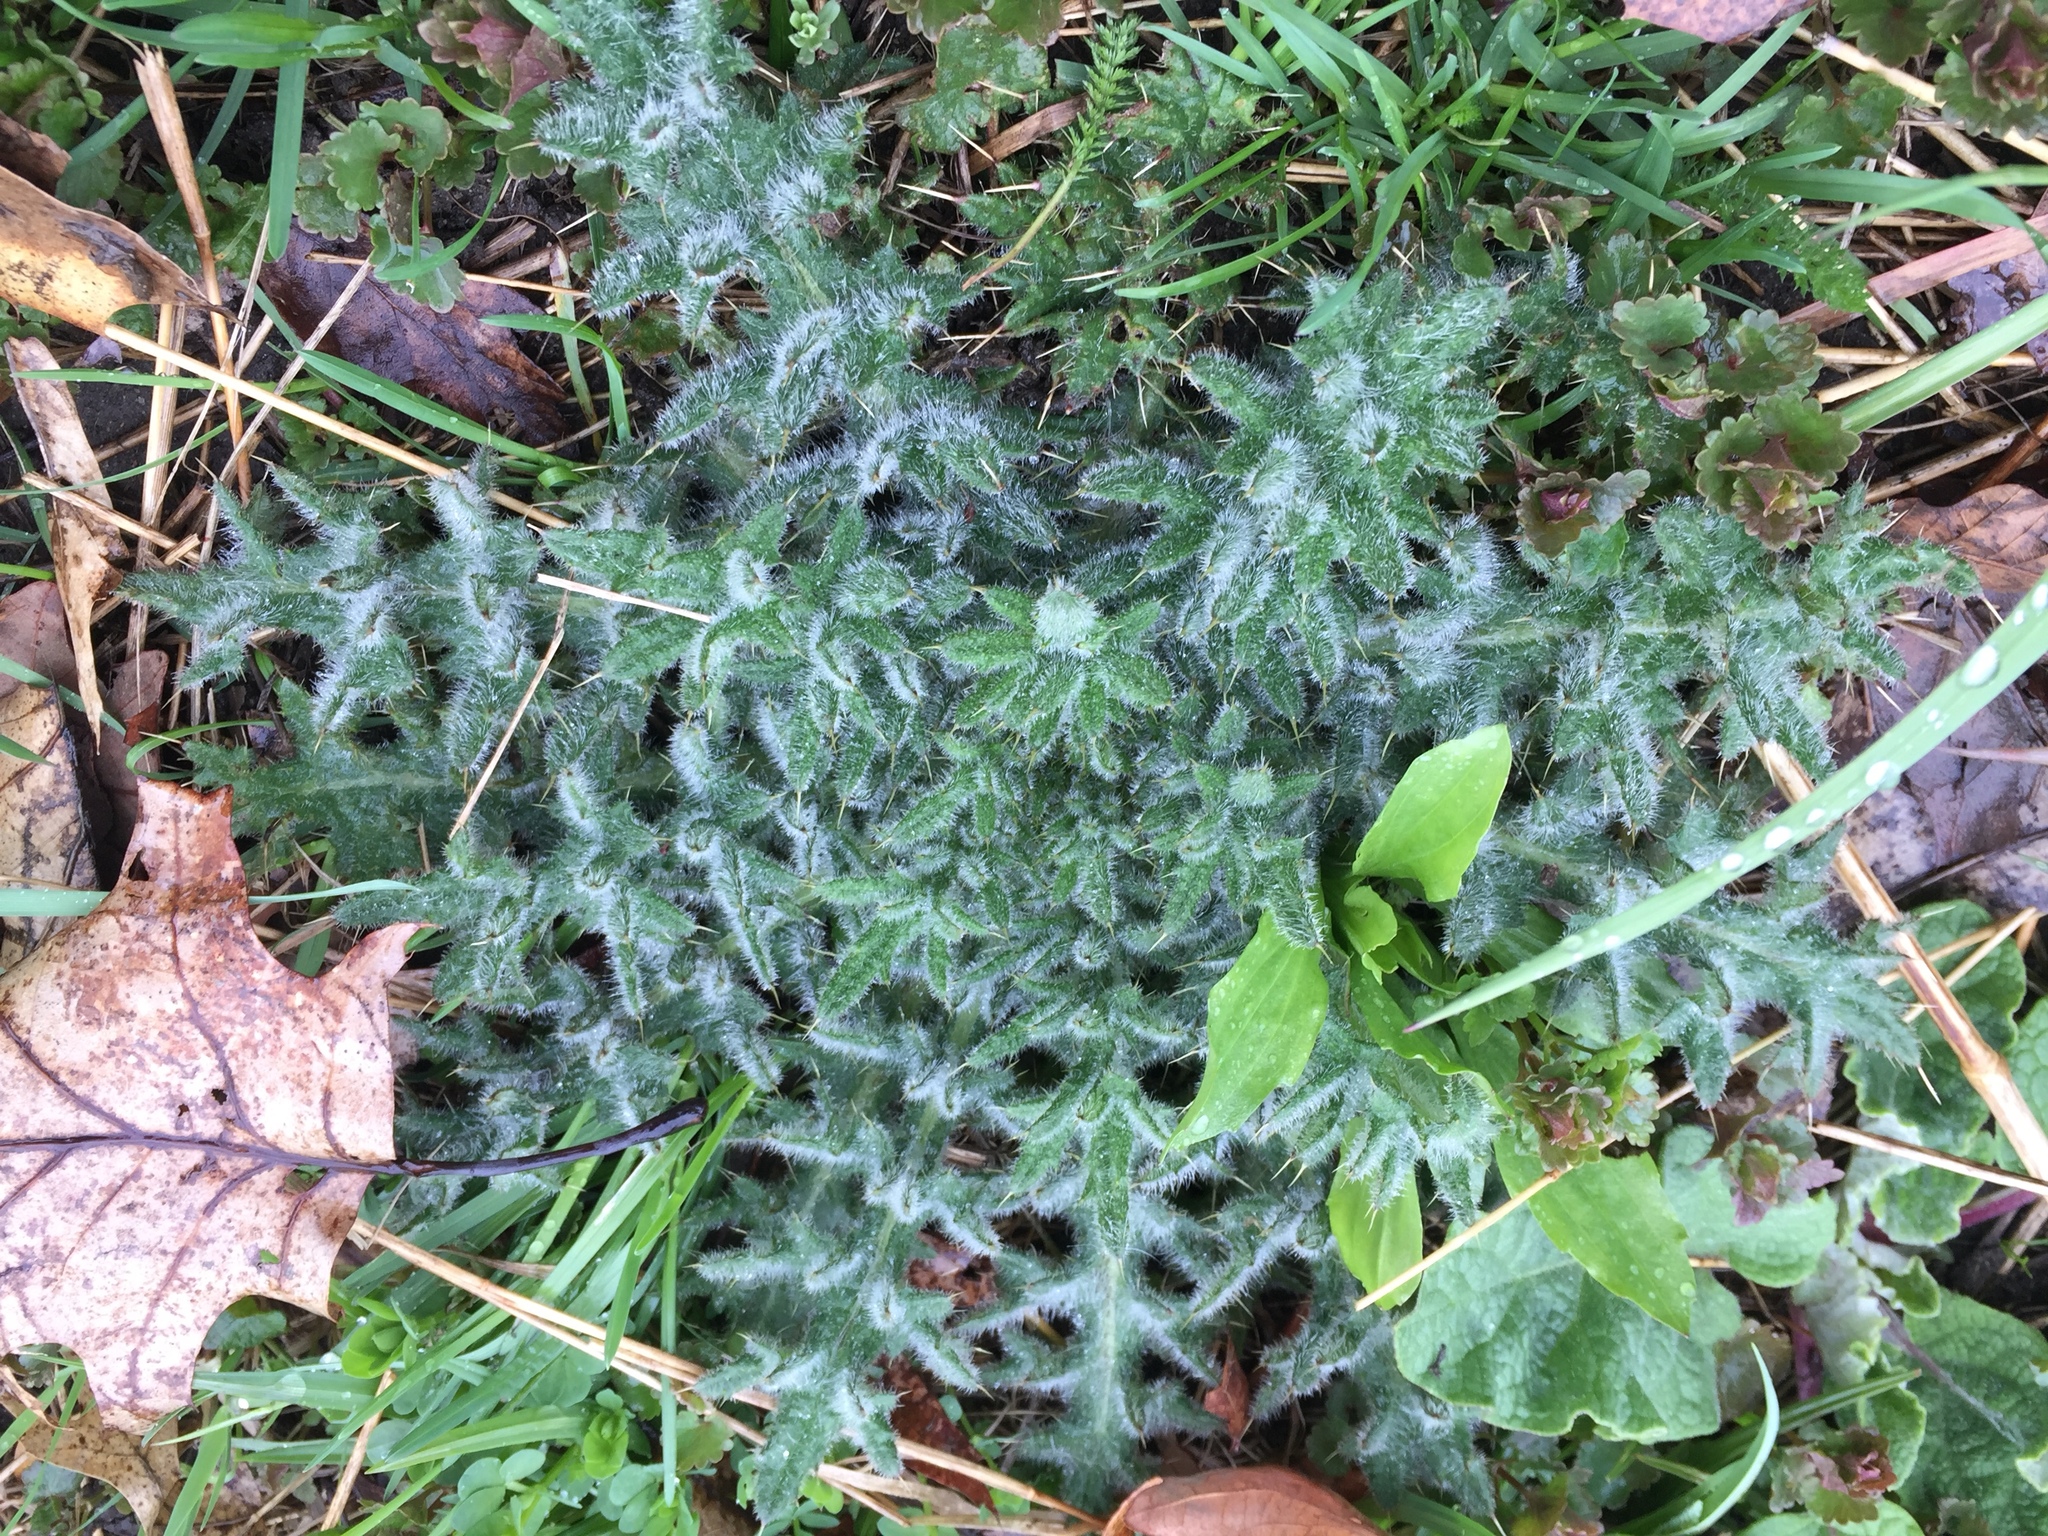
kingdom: Plantae
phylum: Tracheophyta
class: Magnoliopsida
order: Asterales
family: Asteraceae
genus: Cirsium
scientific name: Cirsium vulgare
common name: Bull thistle
